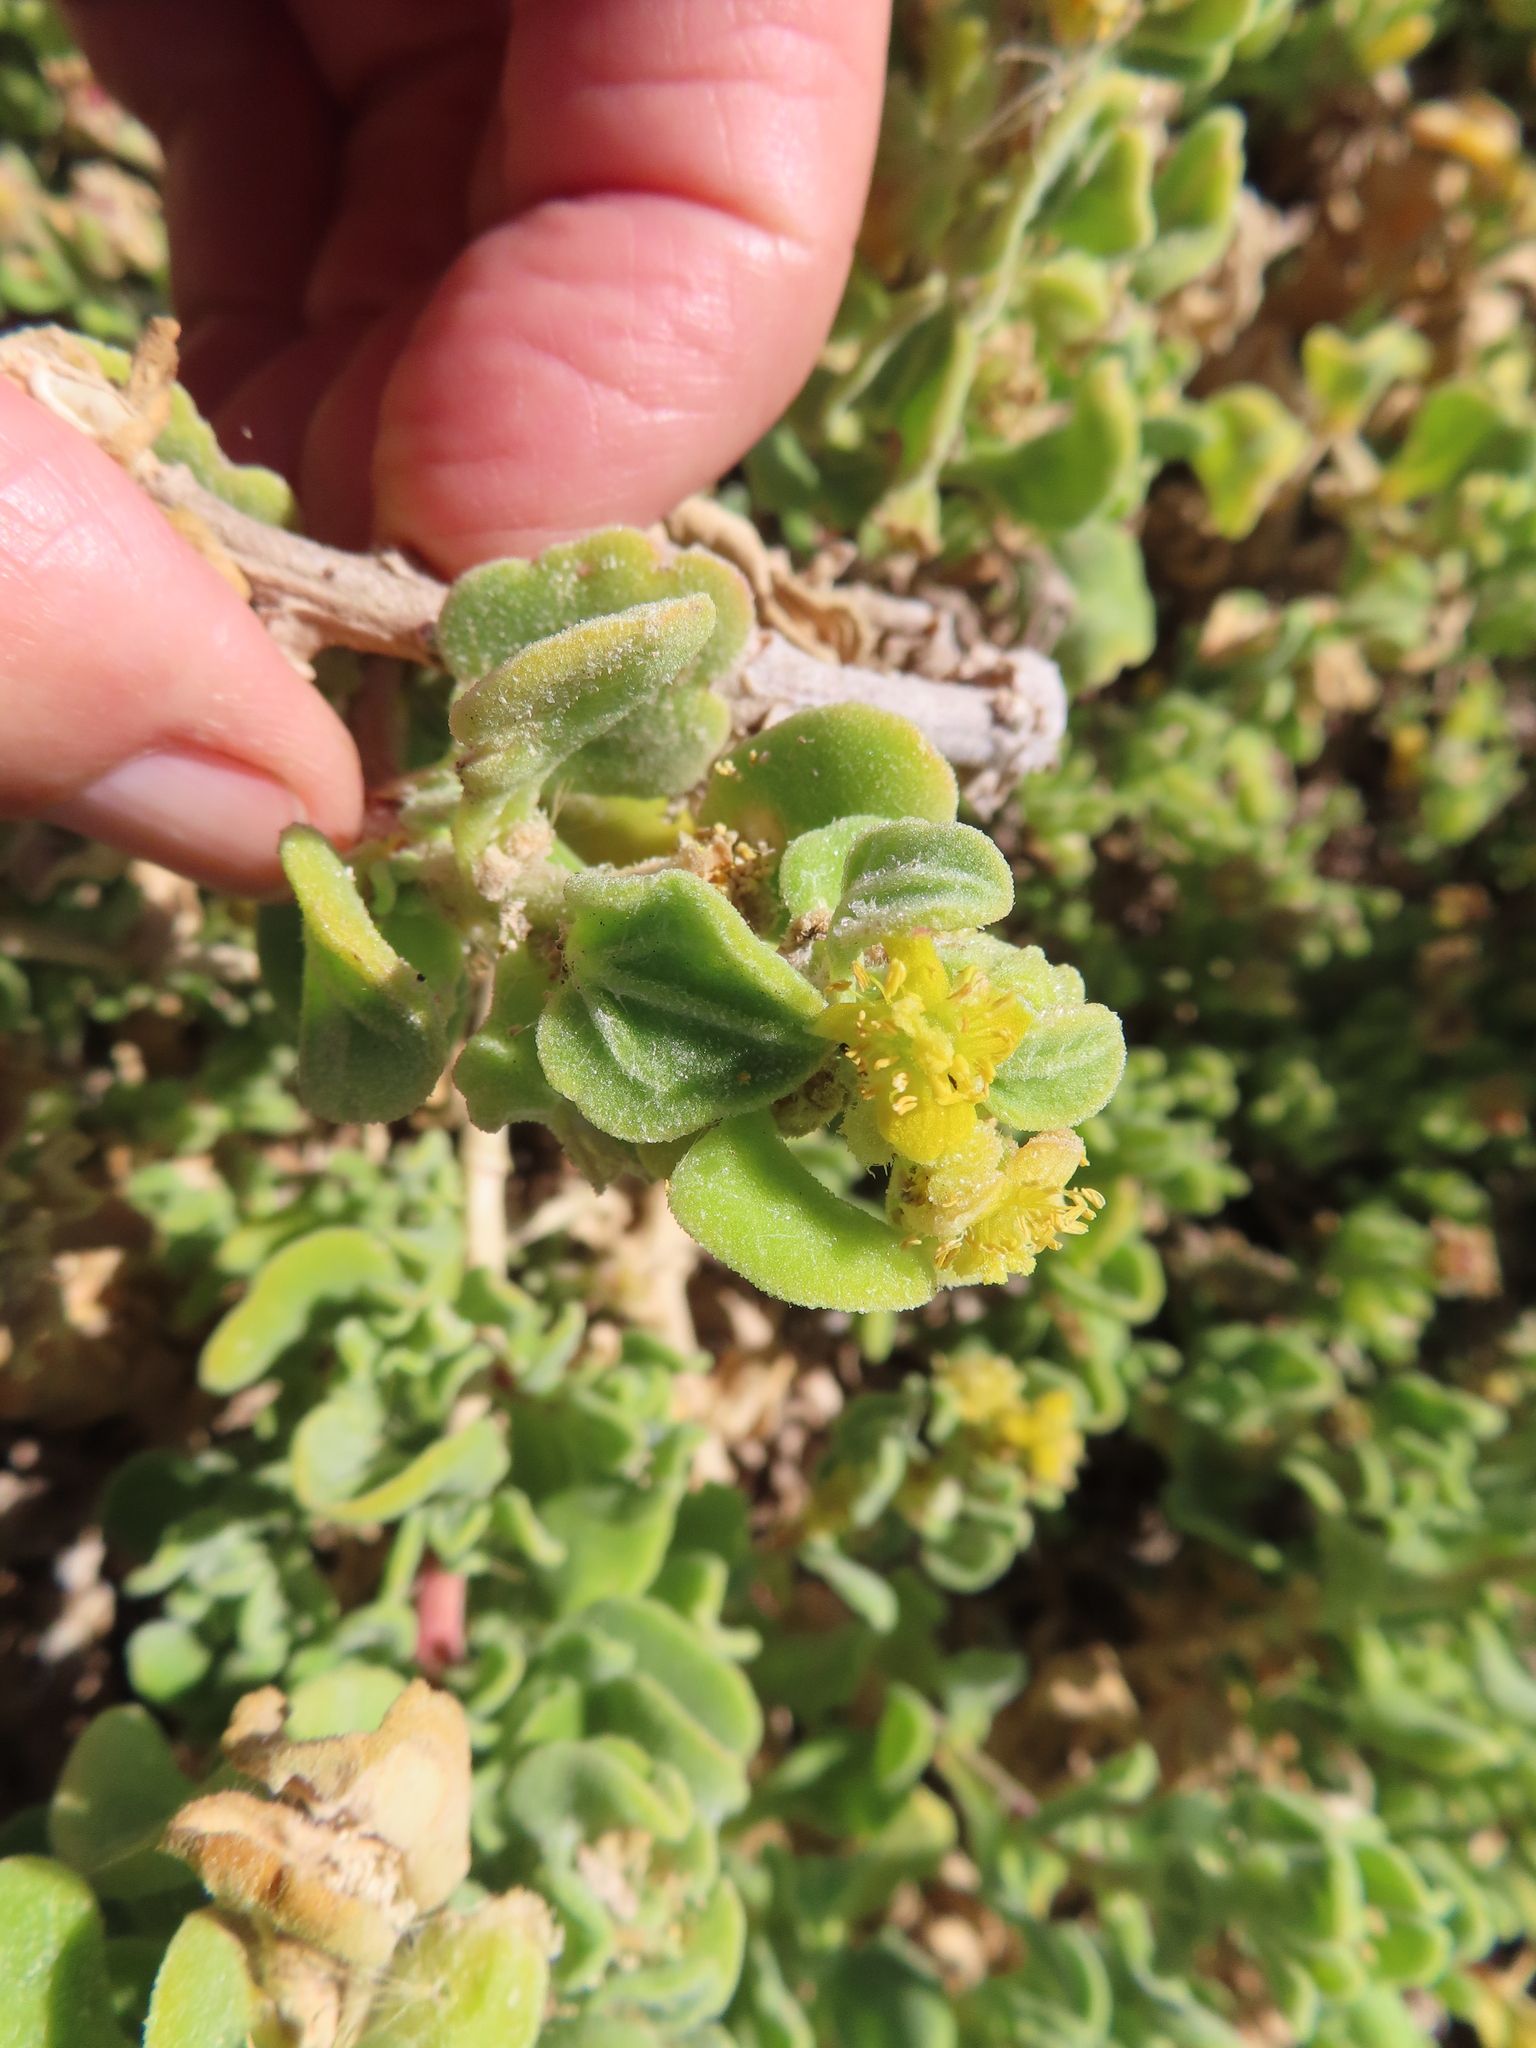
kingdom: Plantae
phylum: Tracheophyta
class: Magnoliopsida
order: Caryophyllales
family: Aizoaceae
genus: Tetragonia
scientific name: Tetragonia decumbens
